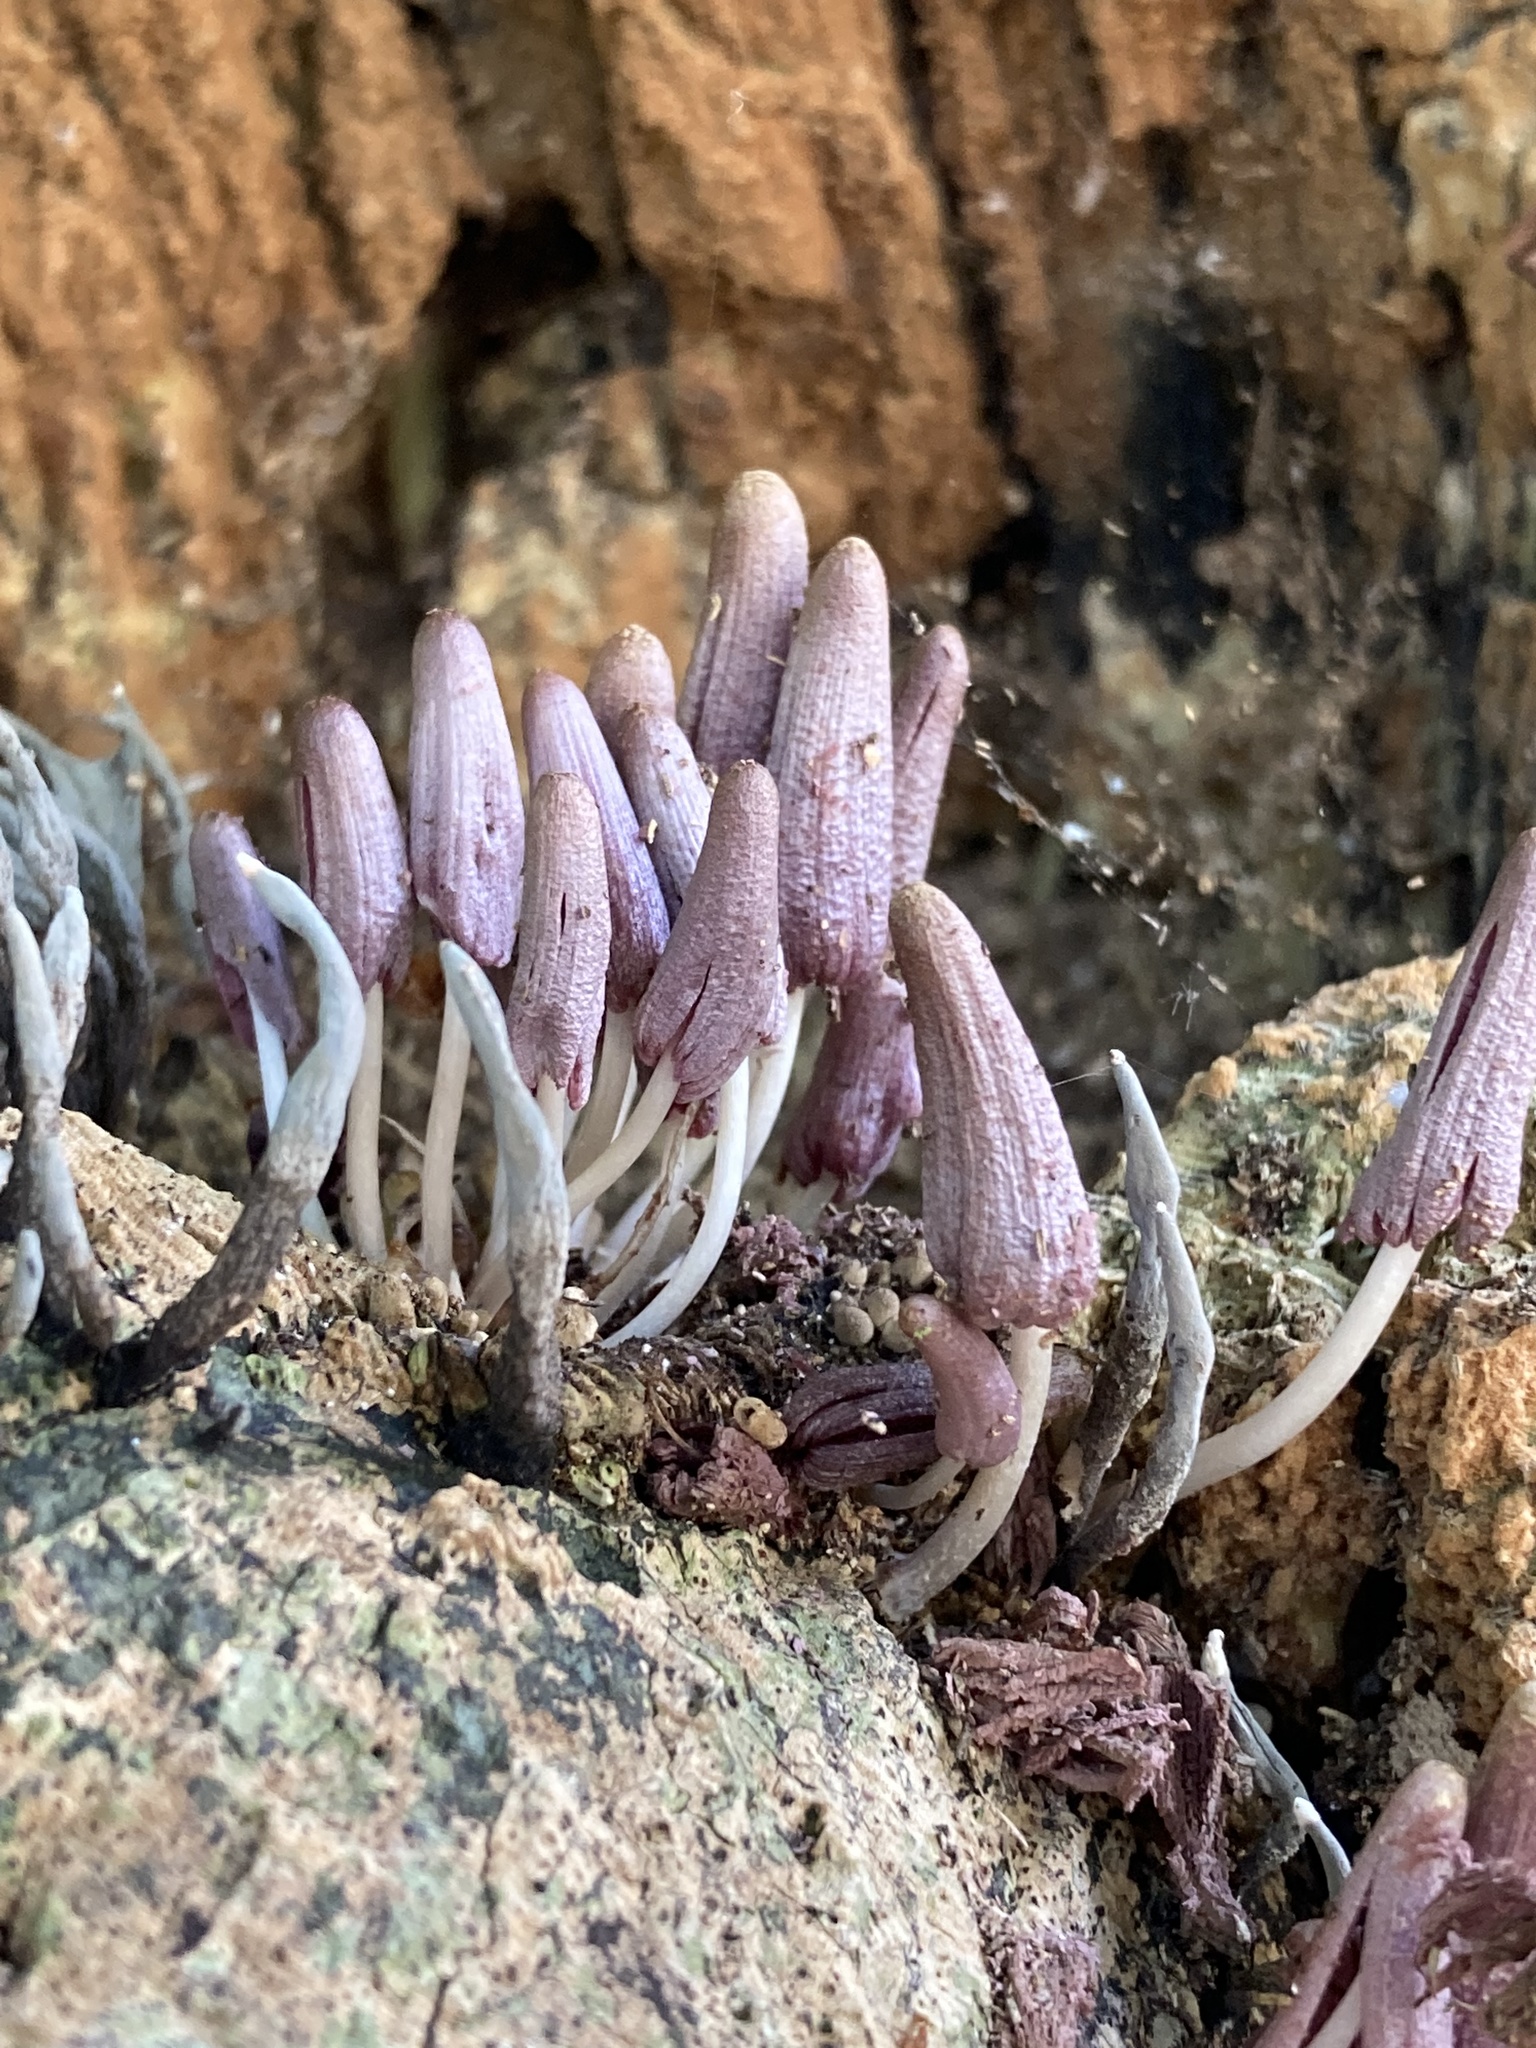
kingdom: Fungi
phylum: Basidiomycota
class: Agaricomycetes
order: Agaricales
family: Psathyrellaceae
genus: Coprinopsis
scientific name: Coprinopsis clastophylla
